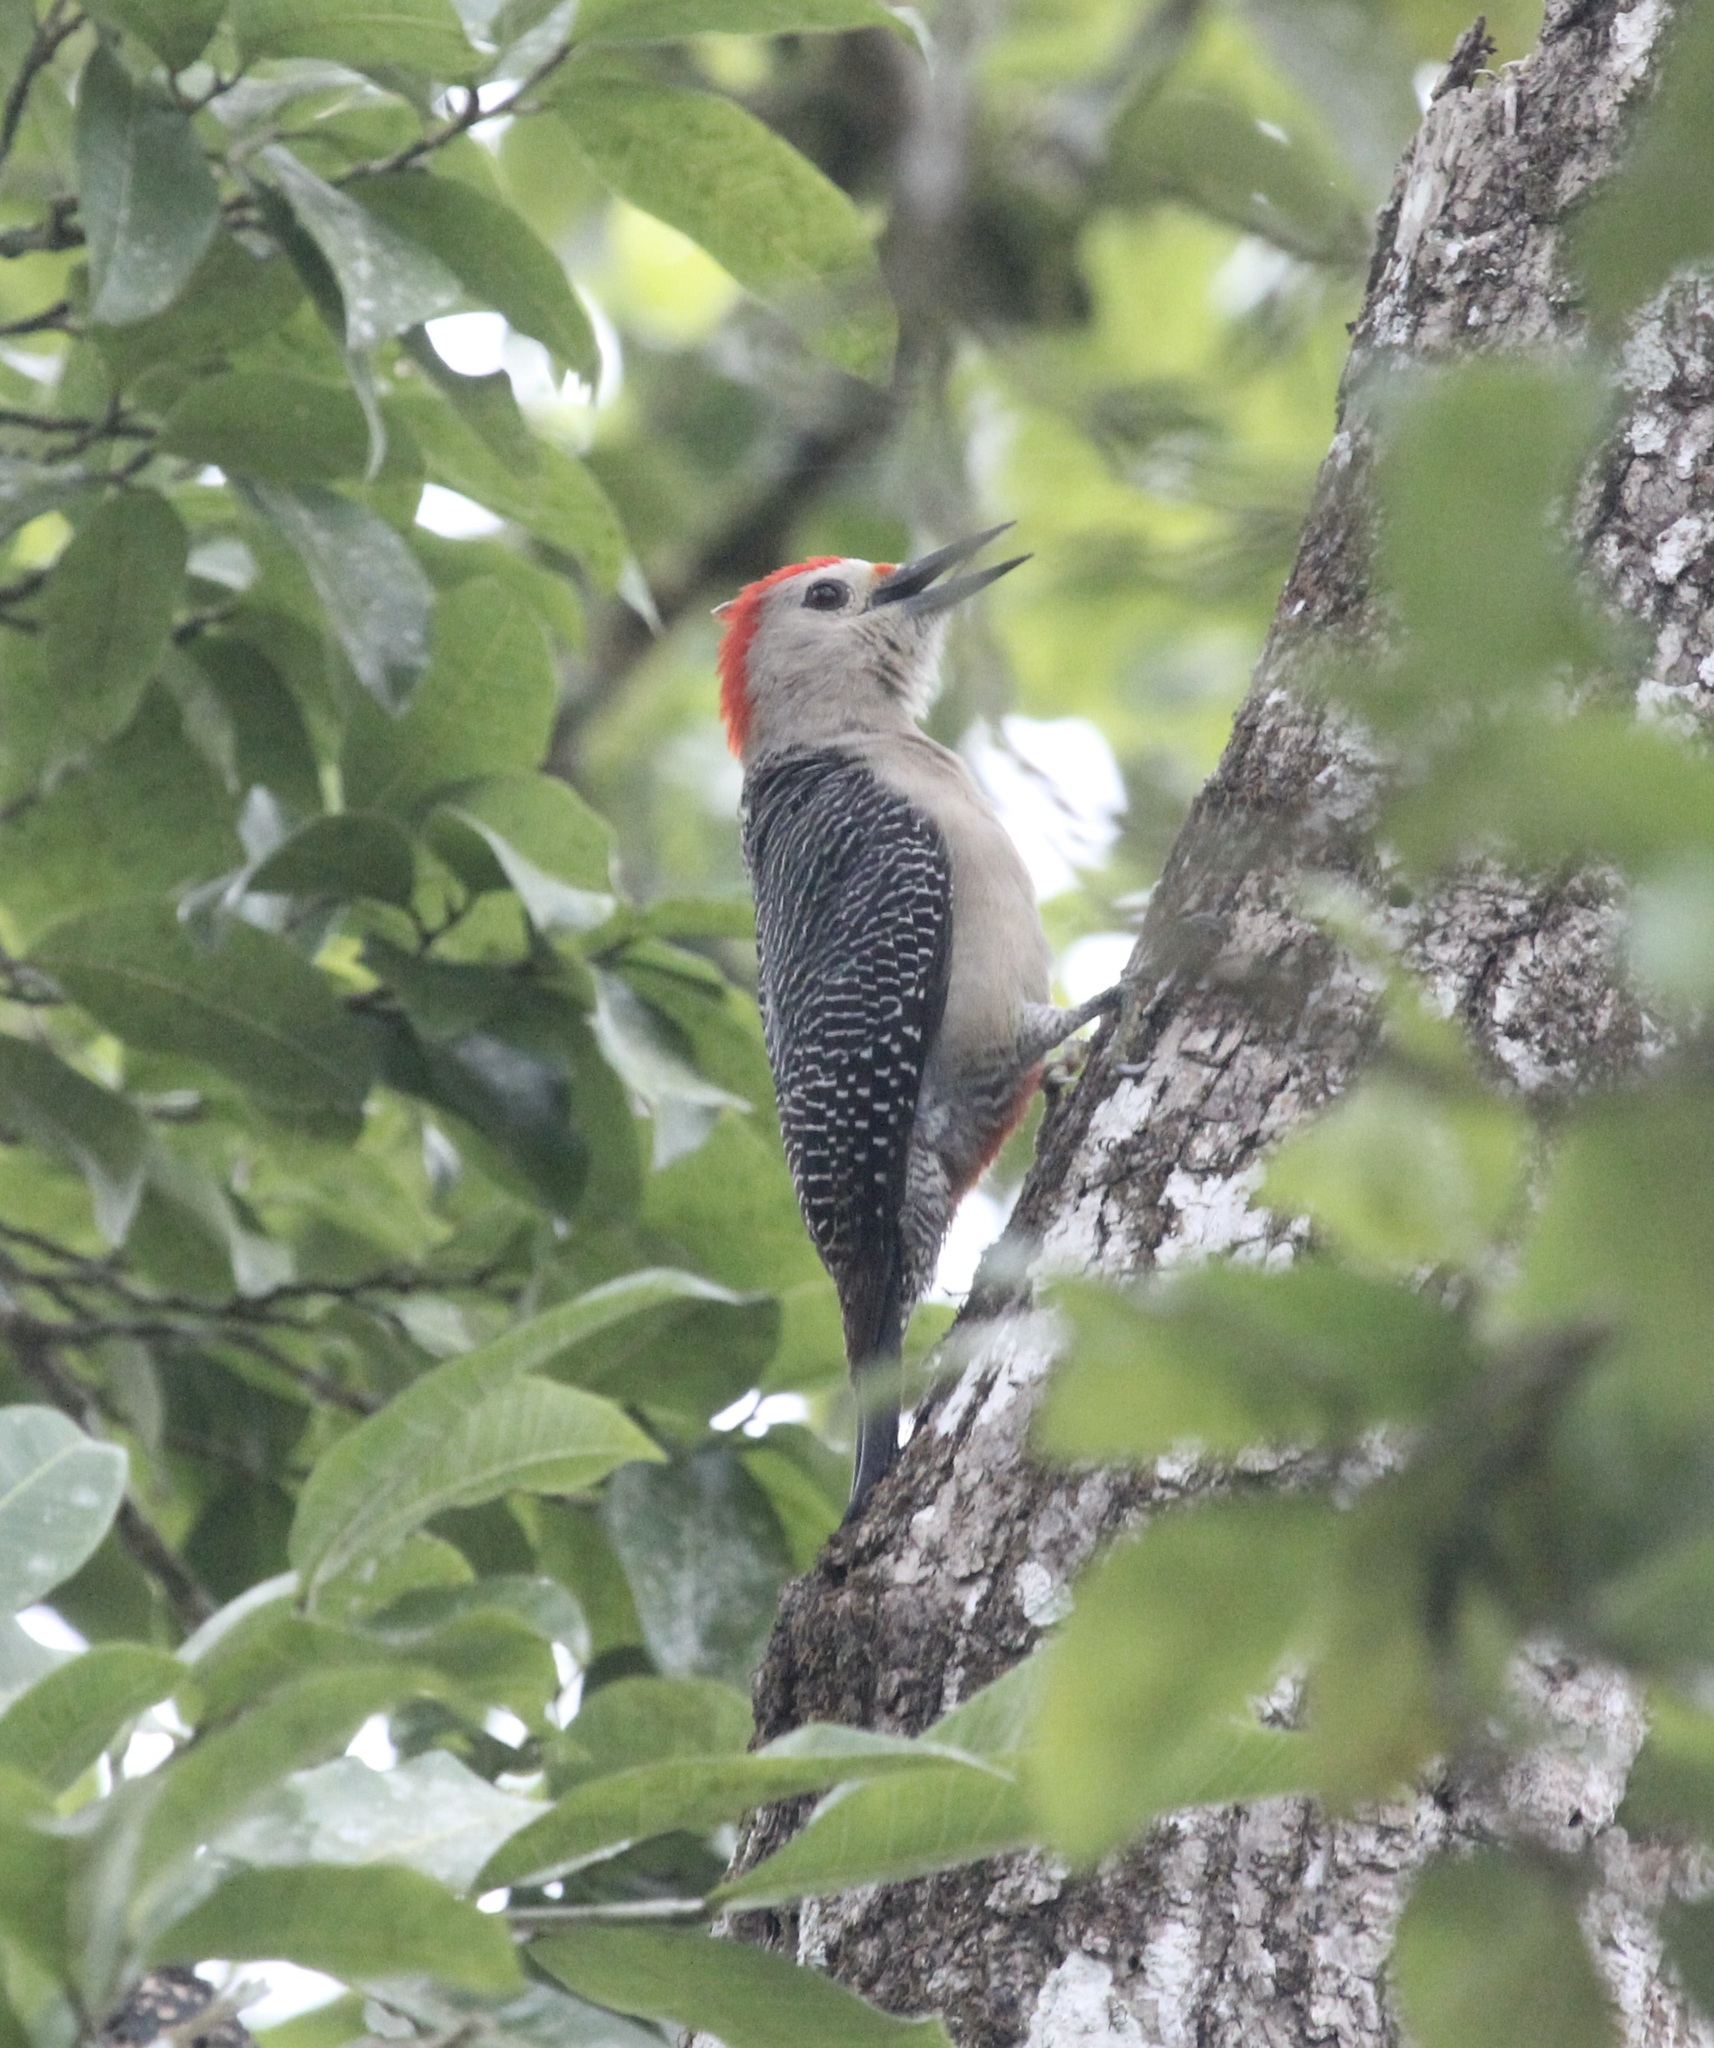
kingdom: Animalia
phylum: Chordata
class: Aves
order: Piciformes
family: Picidae
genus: Melanerpes
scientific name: Melanerpes aurifrons
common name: Golden-fronted woodpecker
